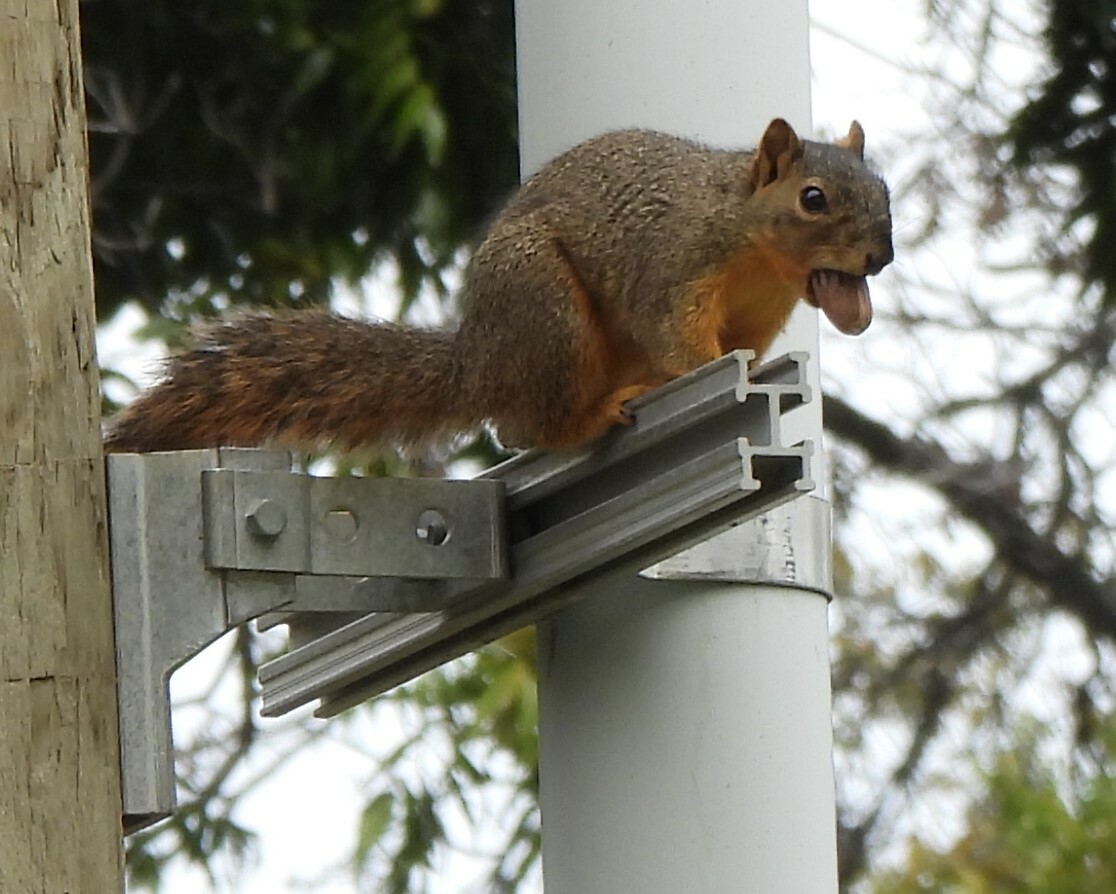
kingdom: Animalia
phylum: Chordata
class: Mammalia
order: Rodentia
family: Sciuridae
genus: Sciurus
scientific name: Sciurus niger
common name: Fox squirrel
